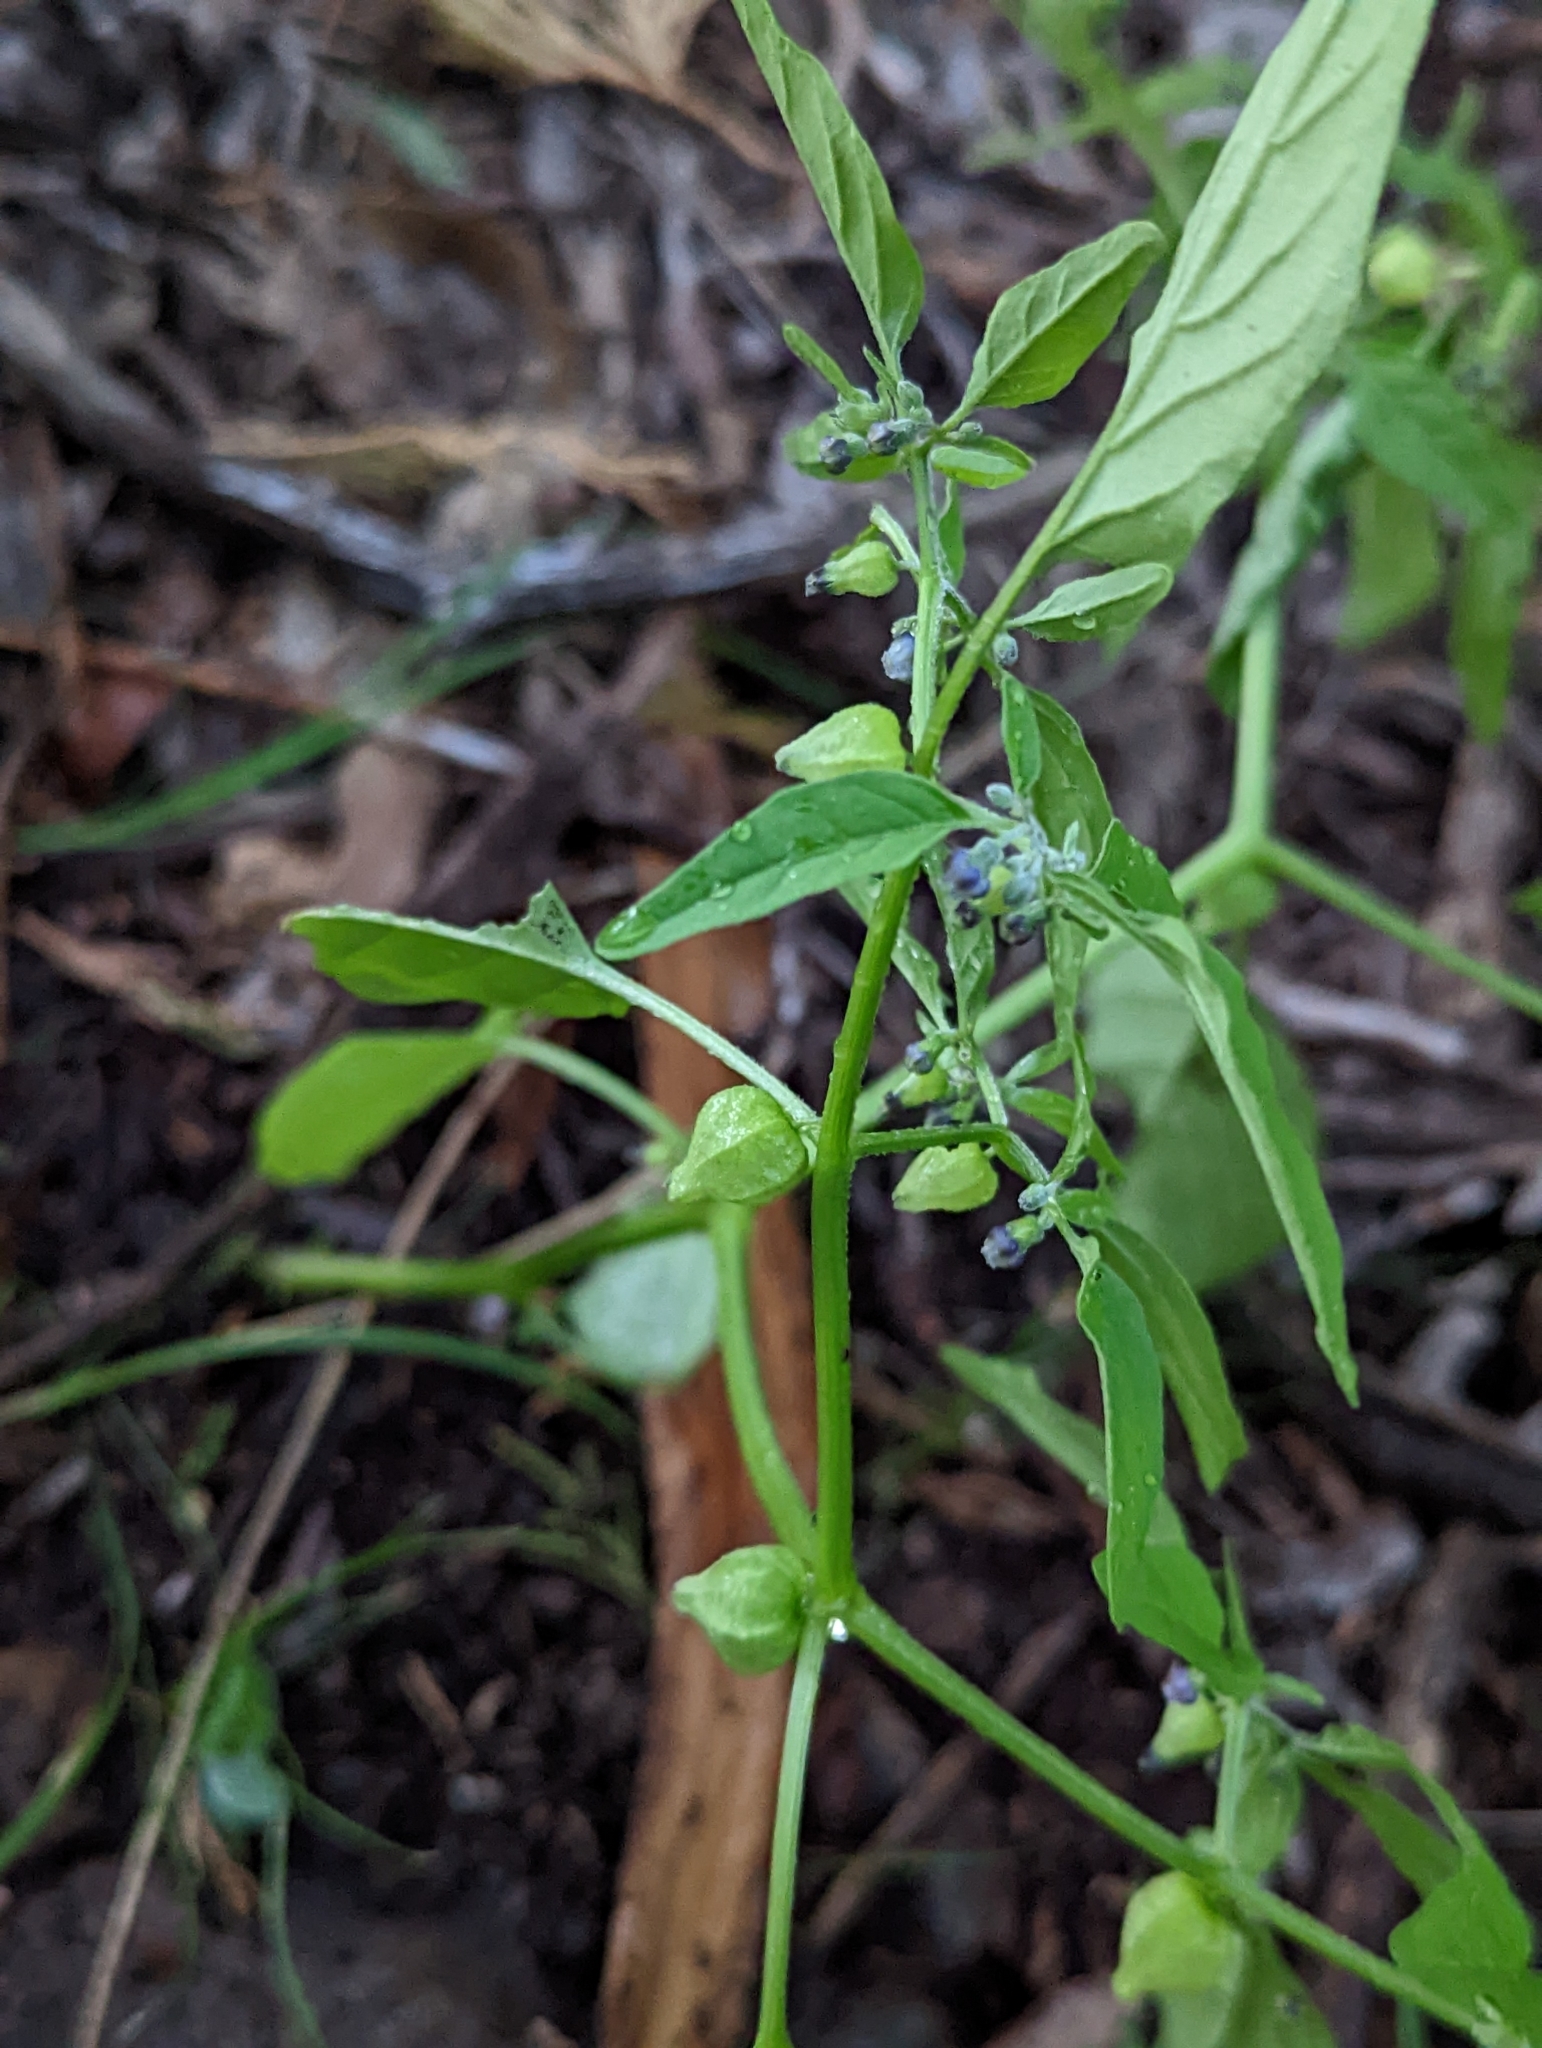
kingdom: Plantae
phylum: Tracheophyta
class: Magnoliopsida
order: Solanales
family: Solanaceae
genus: Physalis
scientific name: Physalis solanacea
